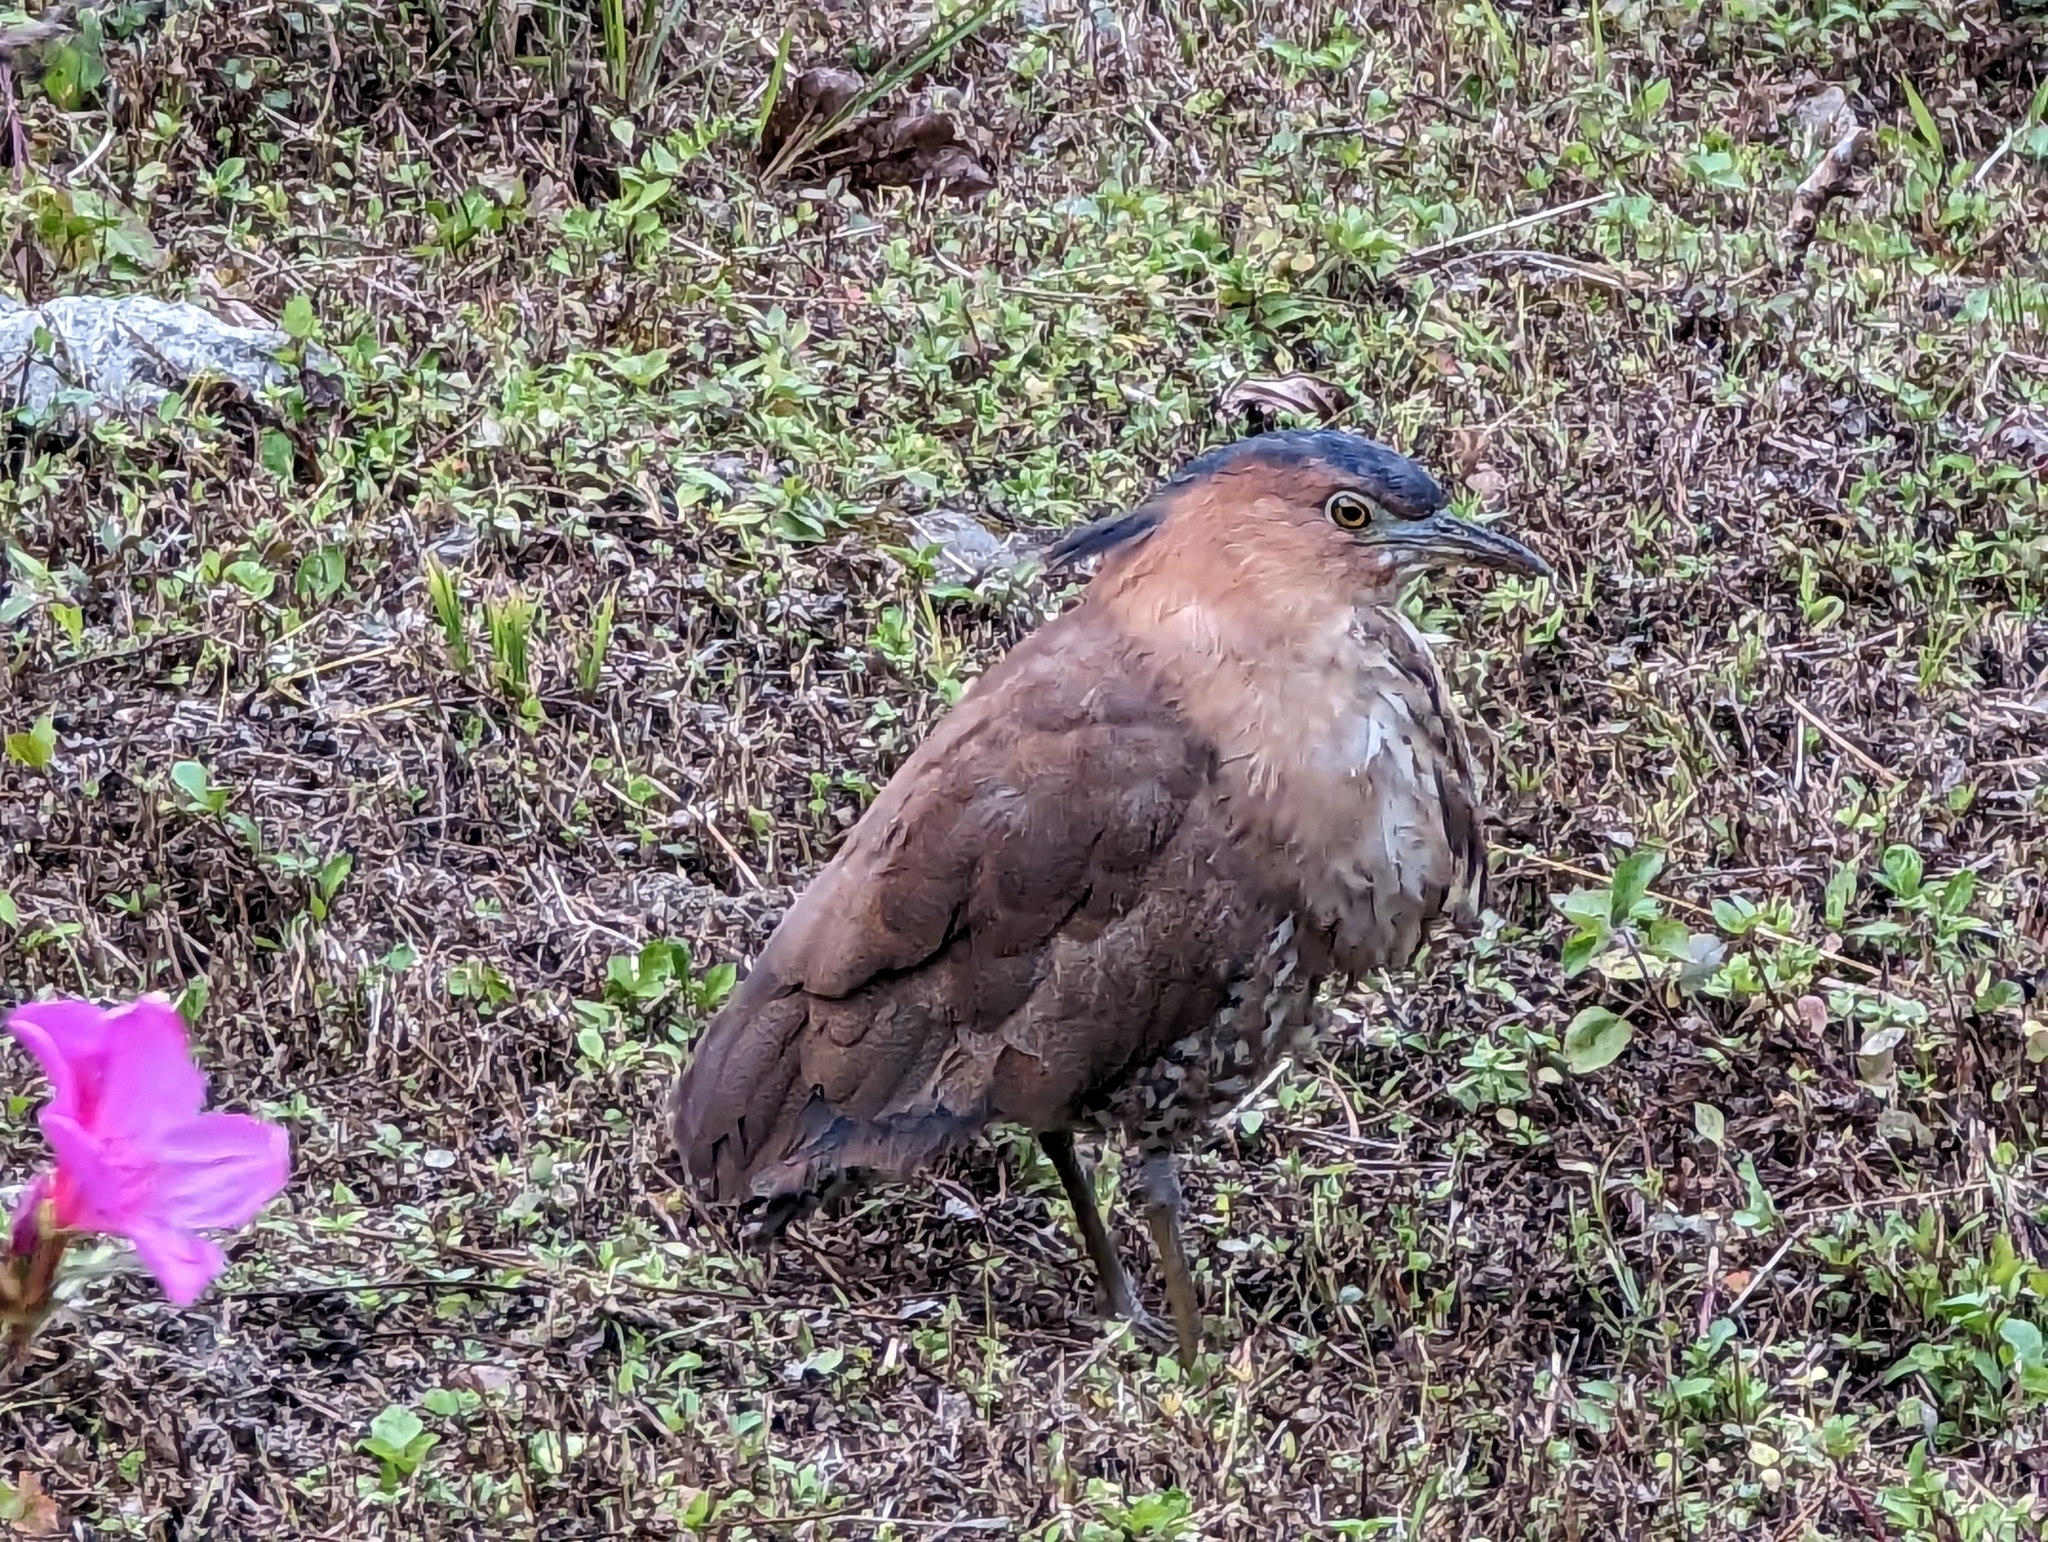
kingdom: Animalia
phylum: Chordata
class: Aves
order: Pelecaniformes
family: Ardeidae
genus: Gorsachius
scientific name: Gorsachius melanolophus
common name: Malayan night heron
